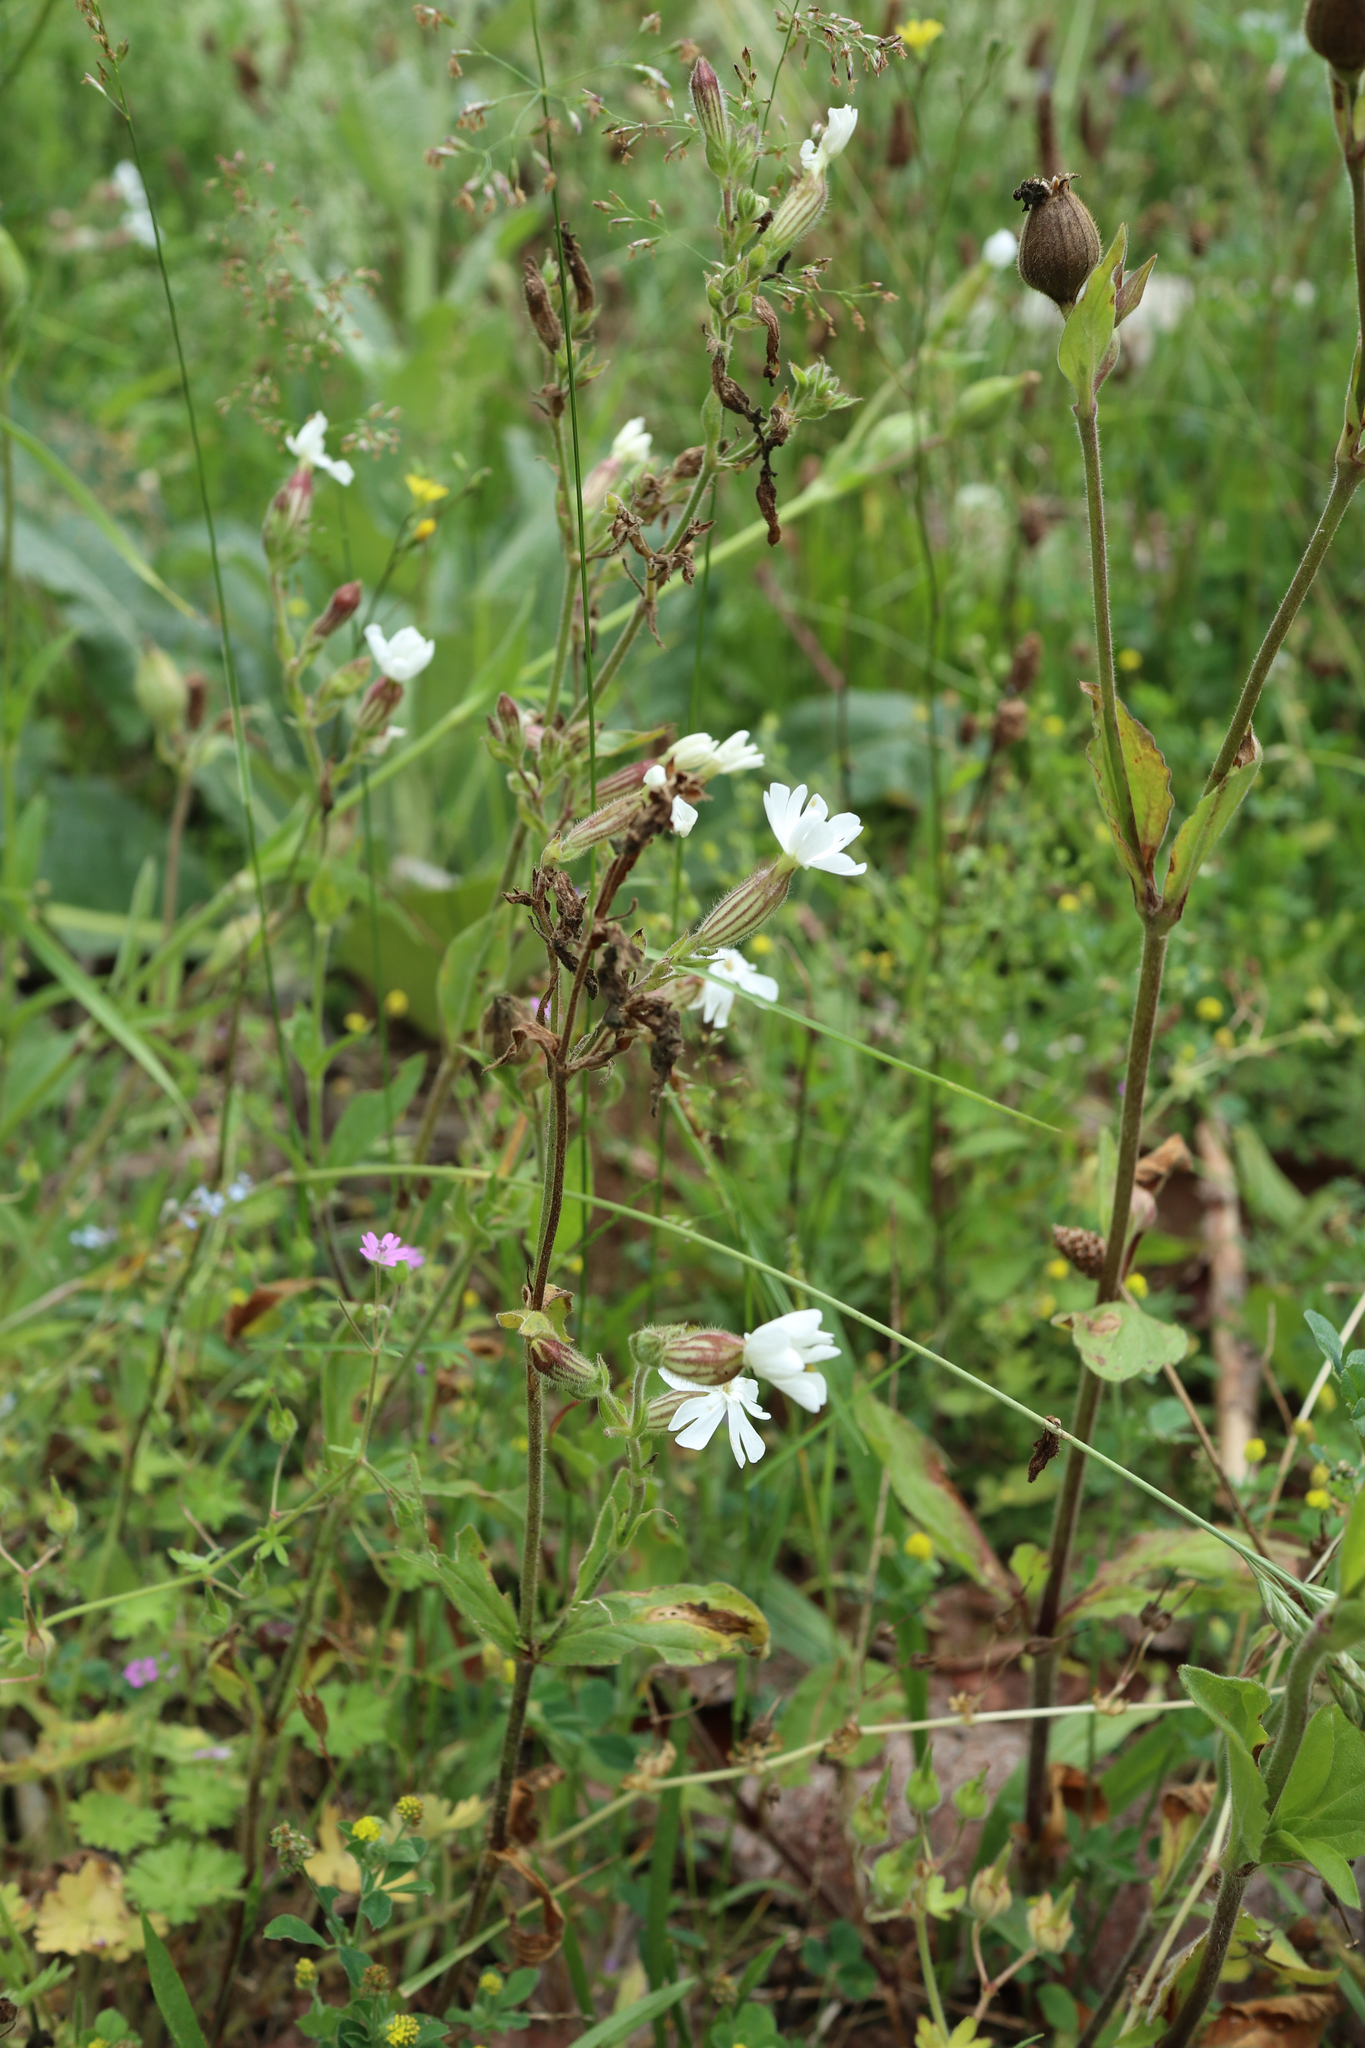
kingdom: Plantae
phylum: Tracheophyta
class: Magnoliopsida
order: Caryophyllales
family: Caryophyllaceae
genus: Silene
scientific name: Silene latifolia
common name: White campion
